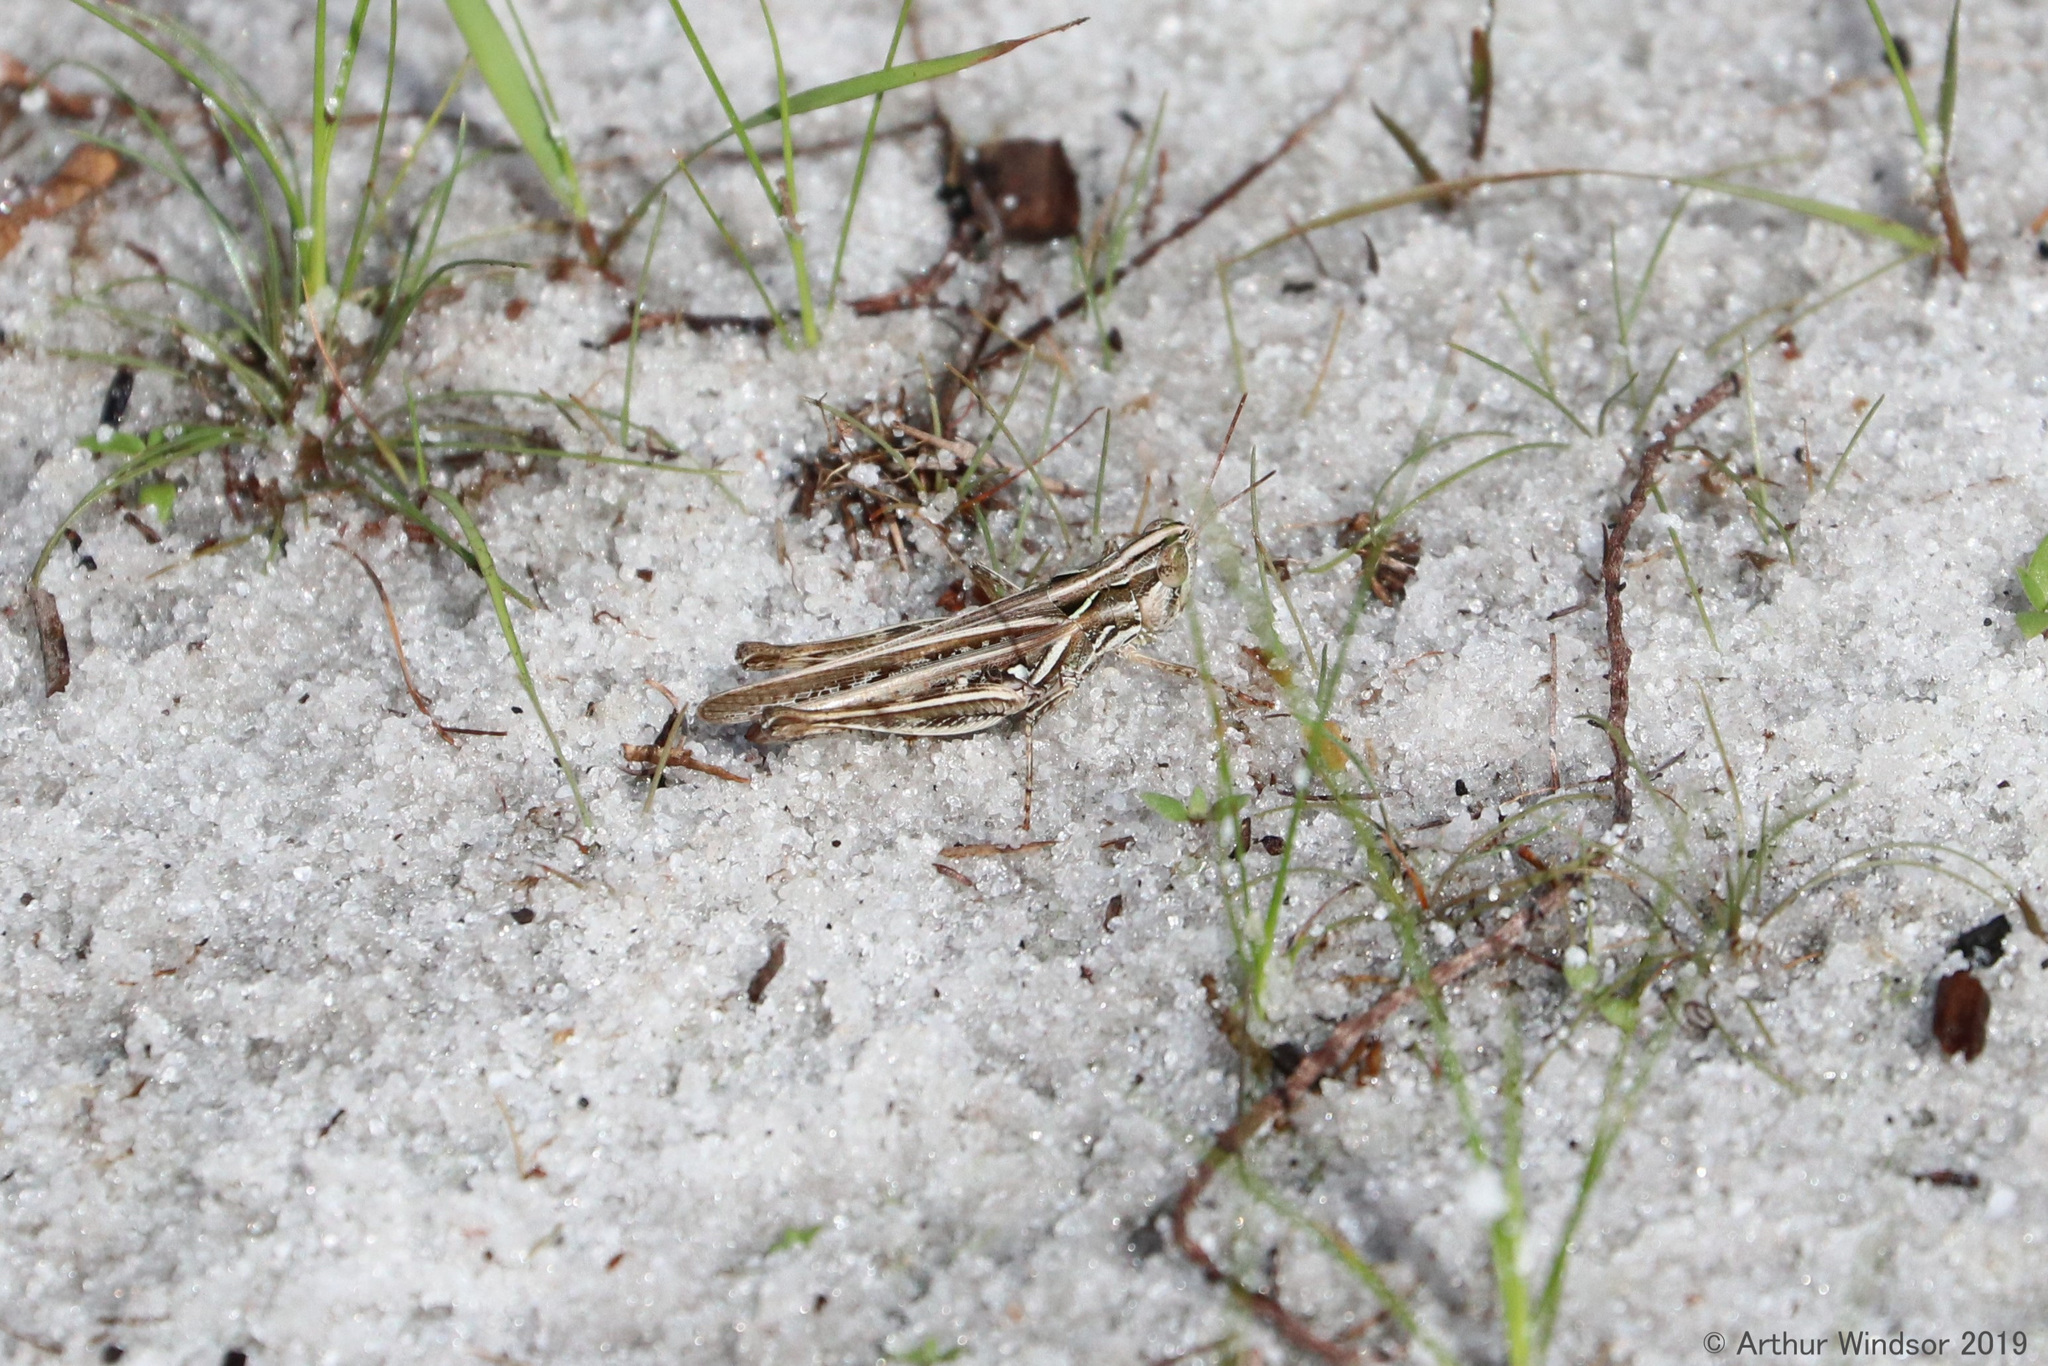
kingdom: Animalia
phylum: Arthropoda
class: Insecta
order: Orthoptera
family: Acrididae
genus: Orphulella
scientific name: Orphulella pelidna
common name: Spotted-wing grasshopper
